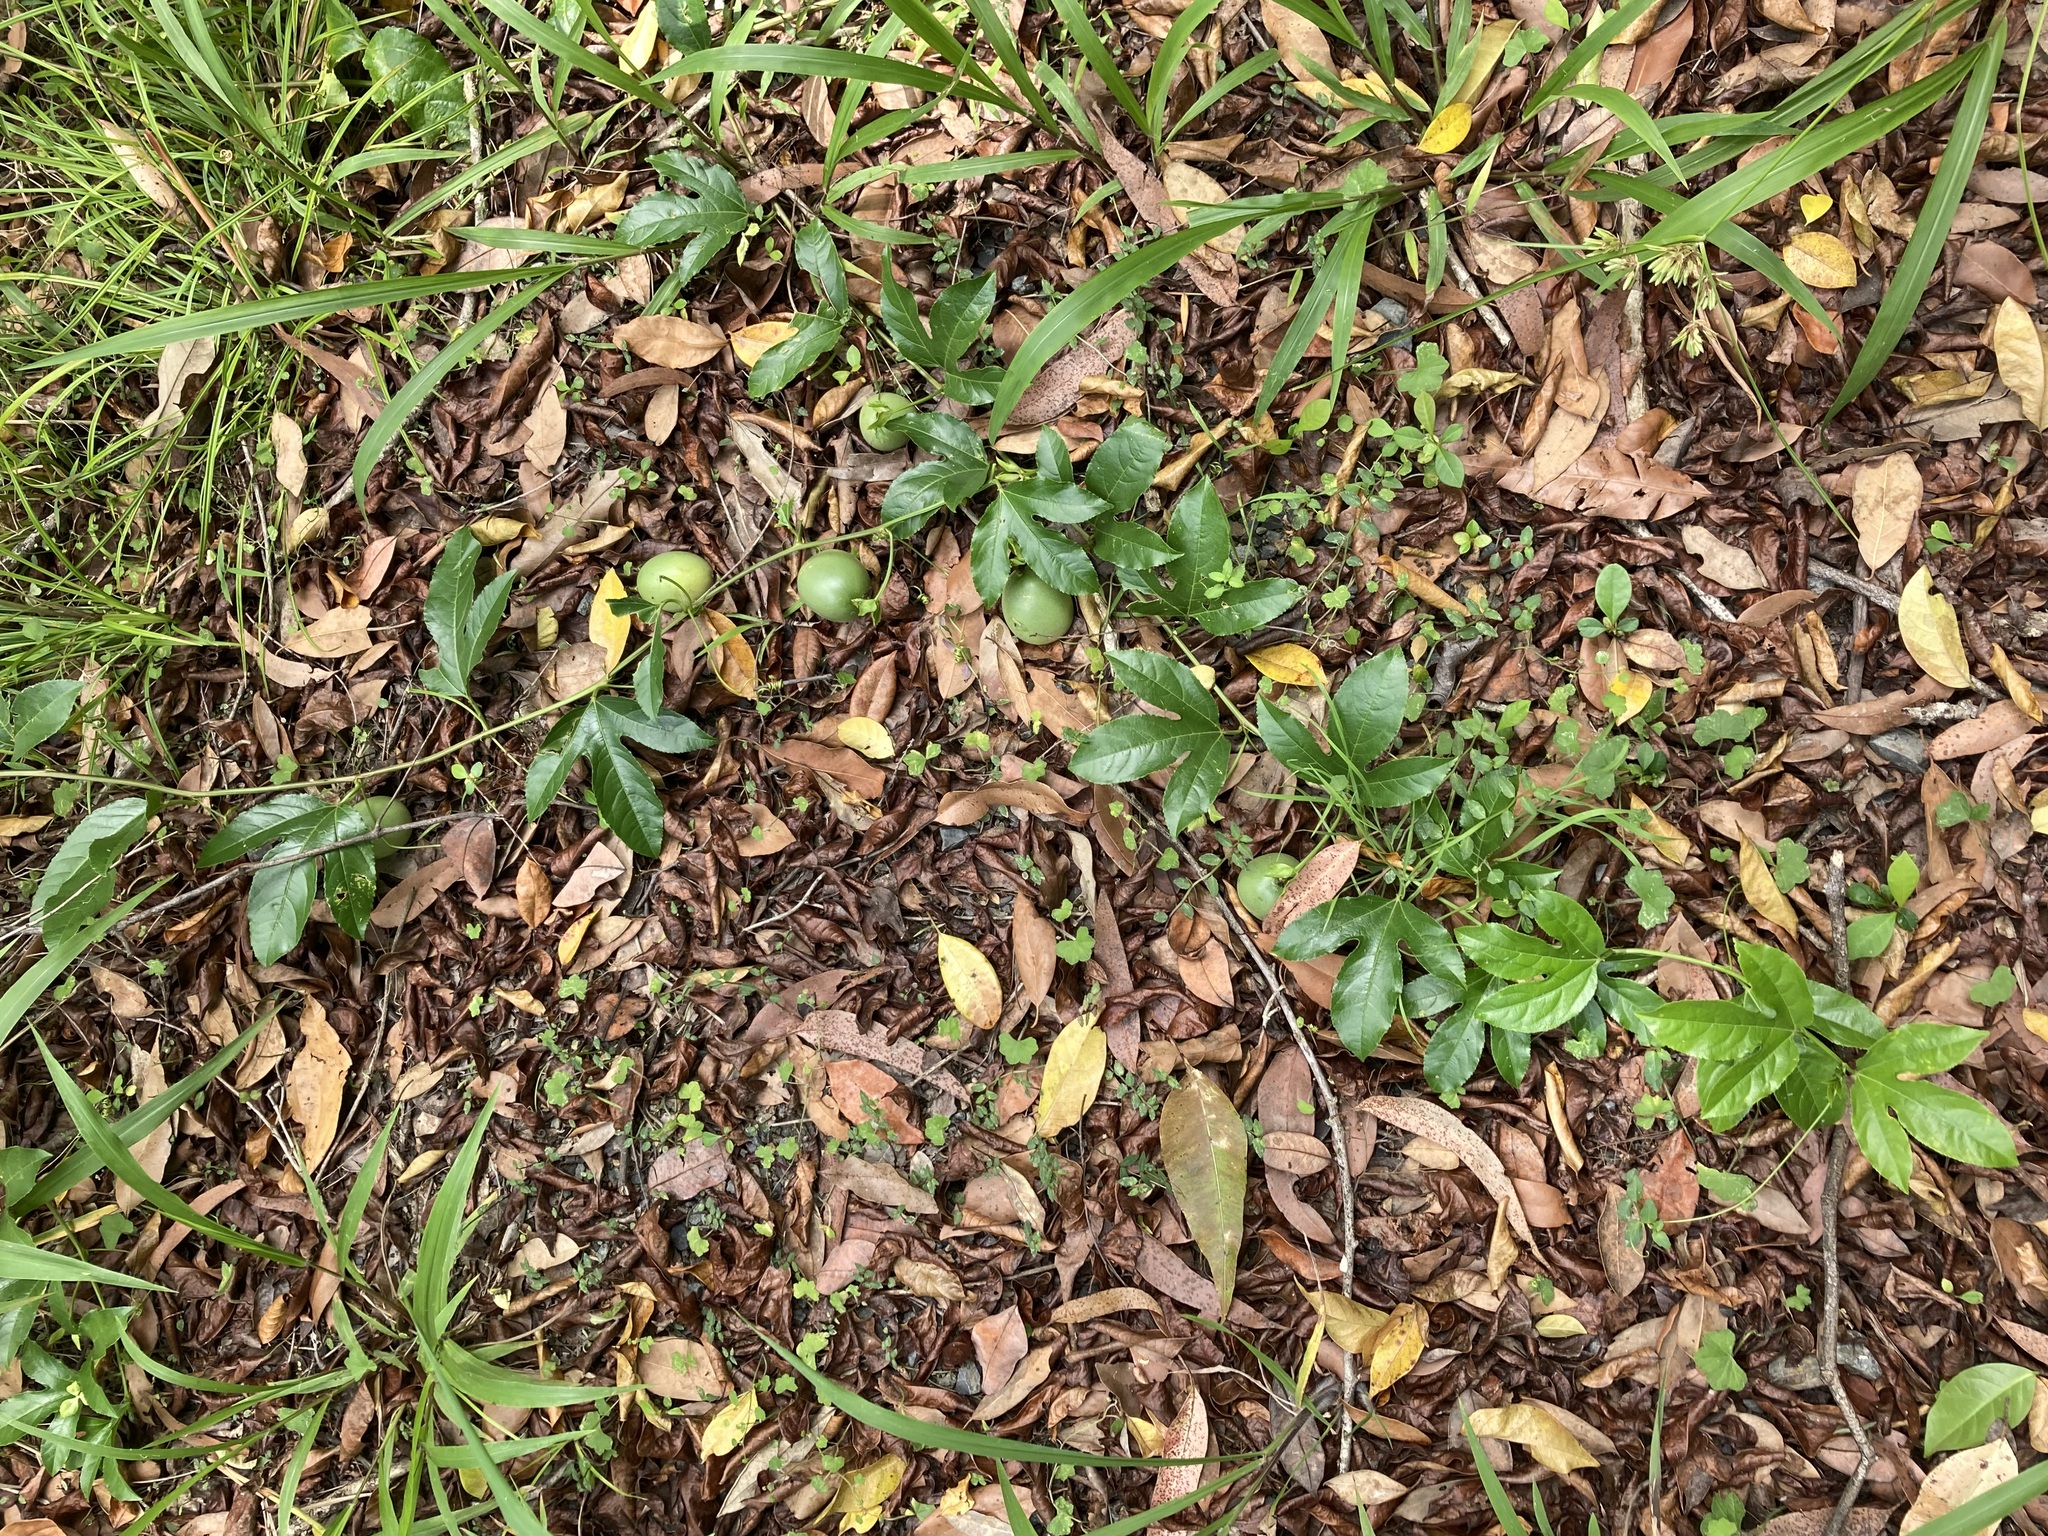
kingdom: Plantae
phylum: Tracheophyta
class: Magnoliopsida
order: Malpighiales
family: Passifloraceae
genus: Passiflora
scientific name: Passiflora edulis
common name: Purple granadilla
